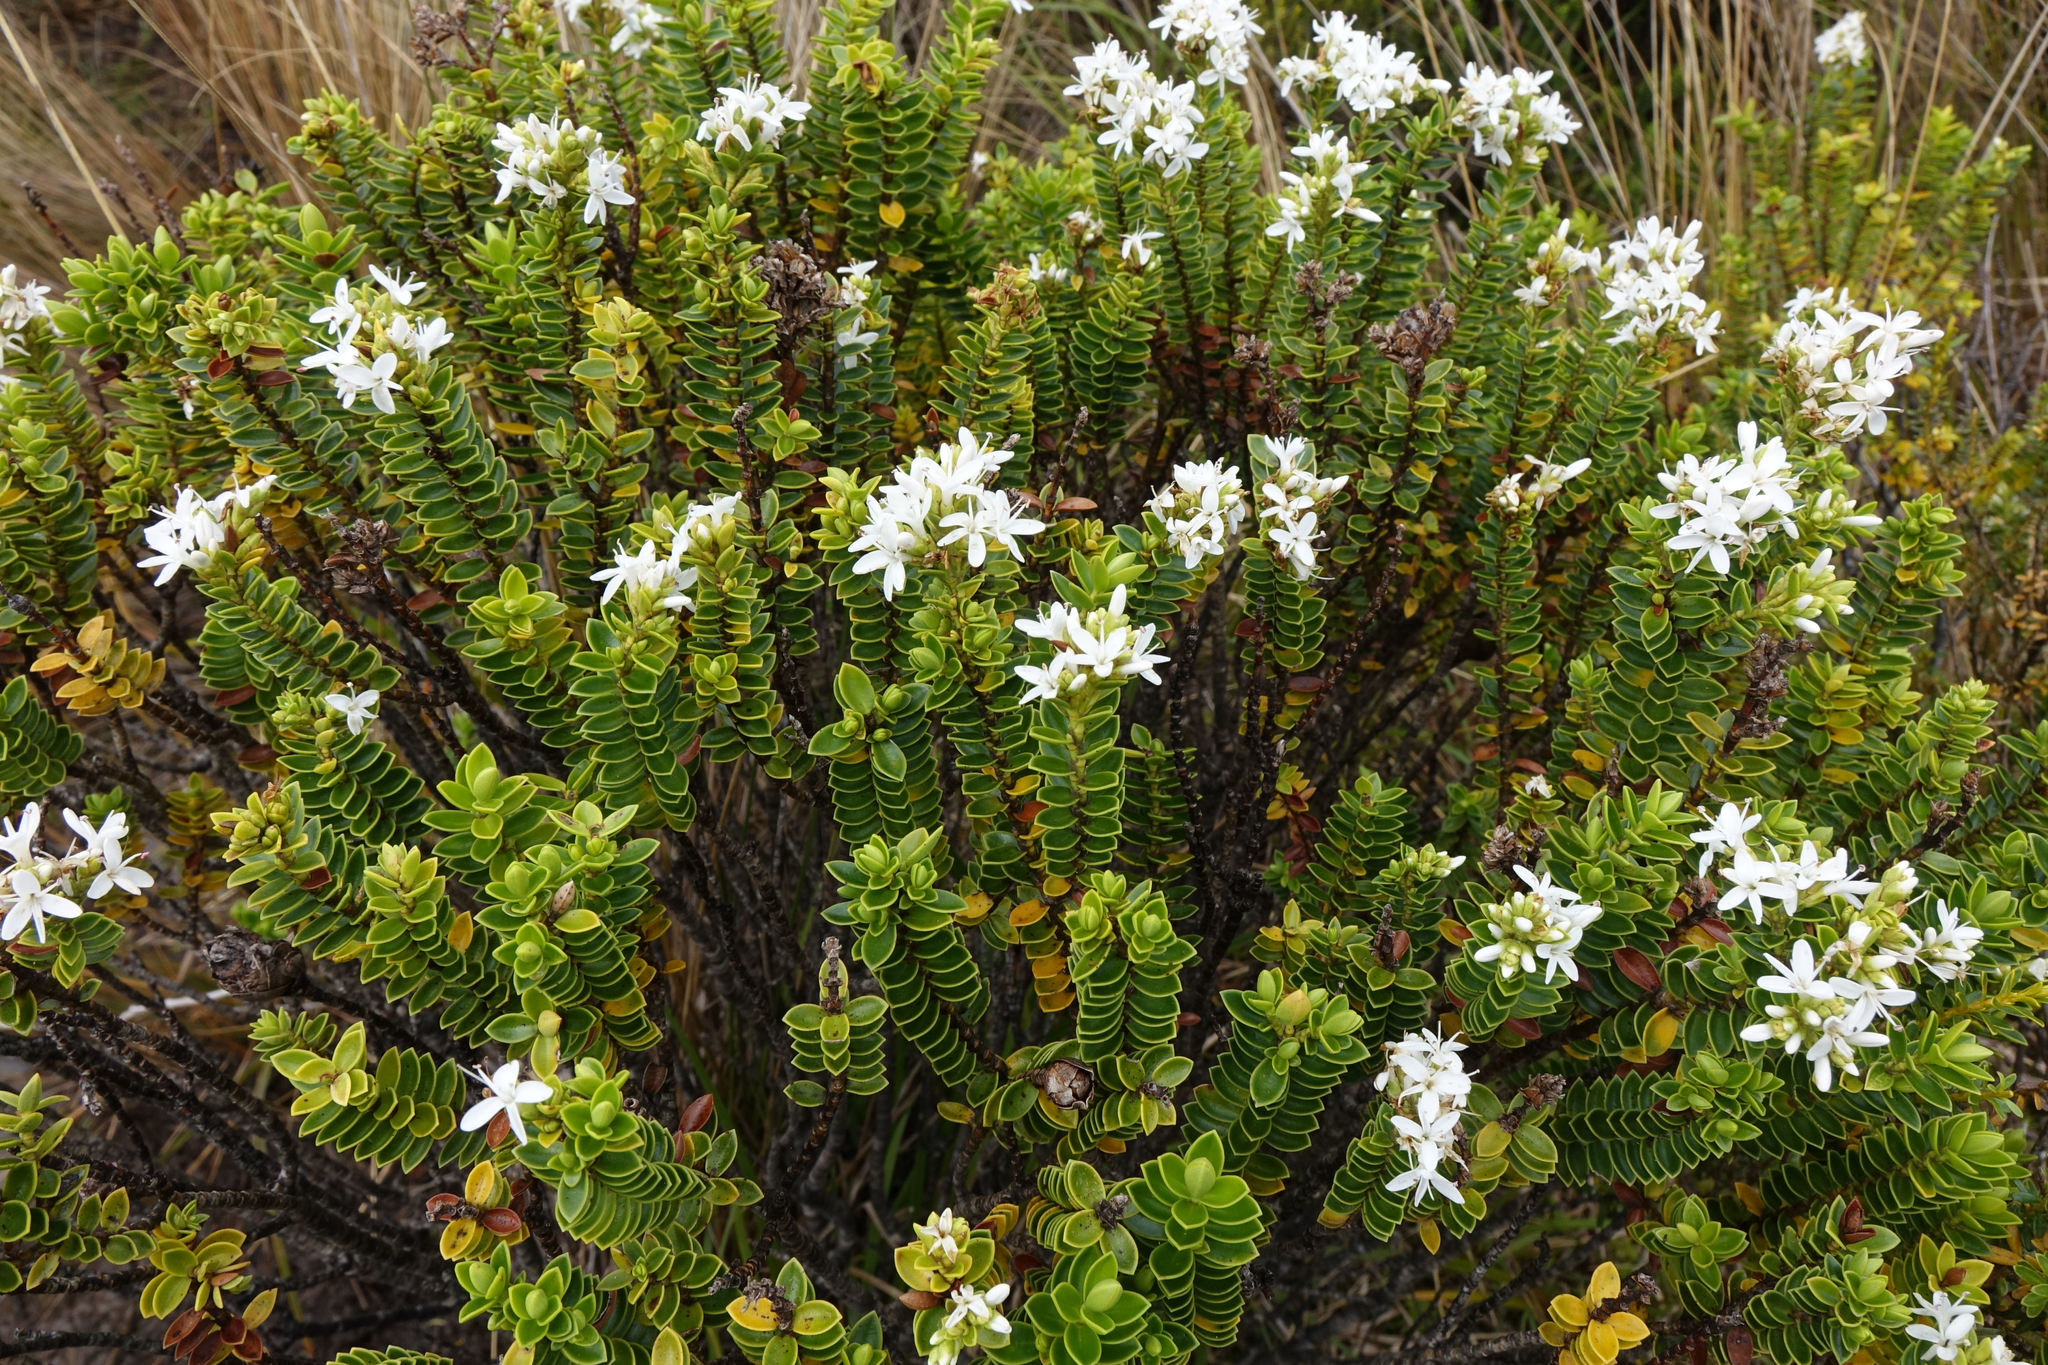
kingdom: Plantae
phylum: Tracheophyta
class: Magnoliopsida
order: Lamiales
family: Plantaginaceae
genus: Veronica
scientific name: Veronica odora
